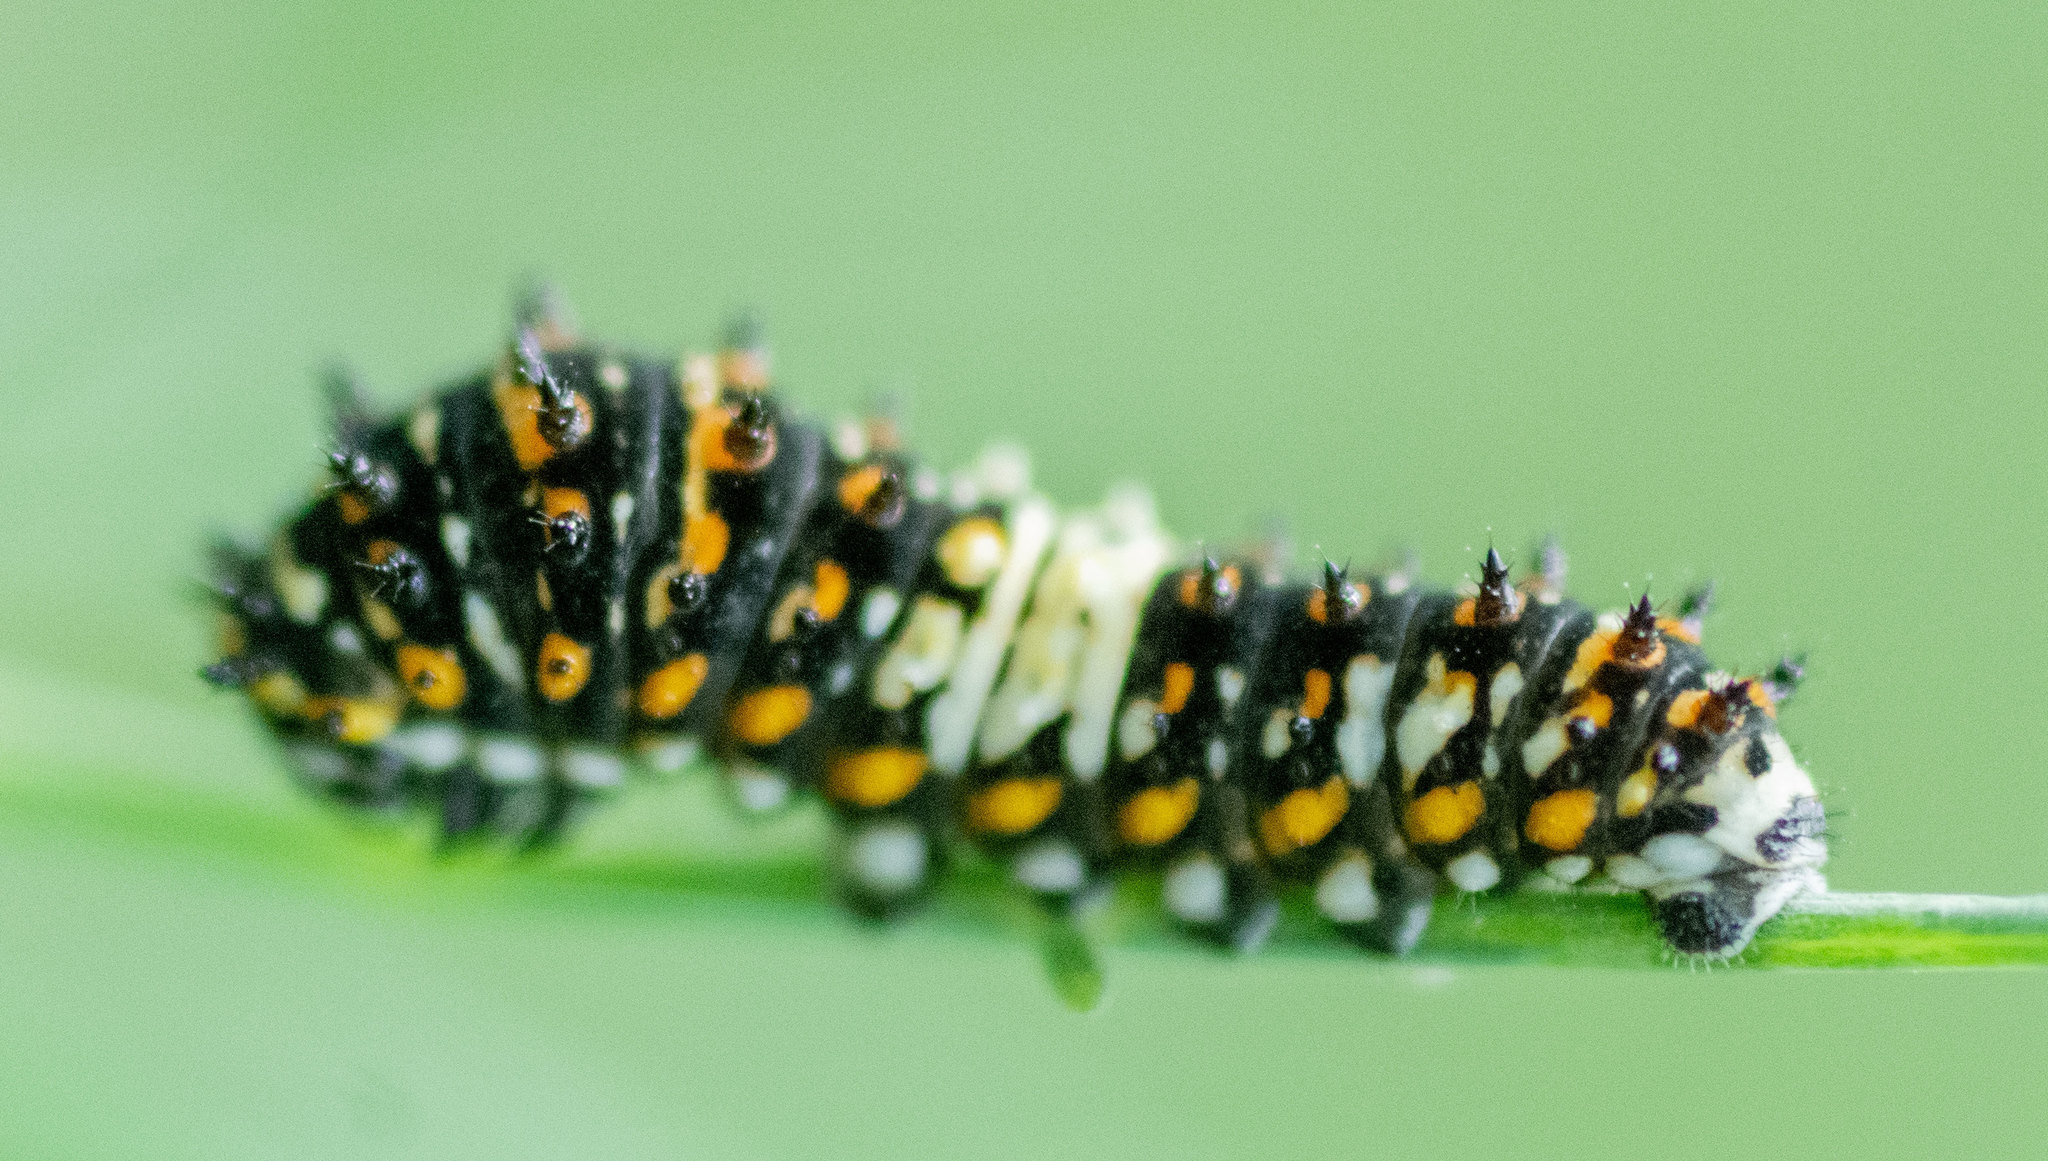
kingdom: Animalia
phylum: Arthropoda
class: Insecta
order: Lepidoptera
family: Papilionidae
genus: Papilio
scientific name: Papilio polyxenes
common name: Black swallowtail
